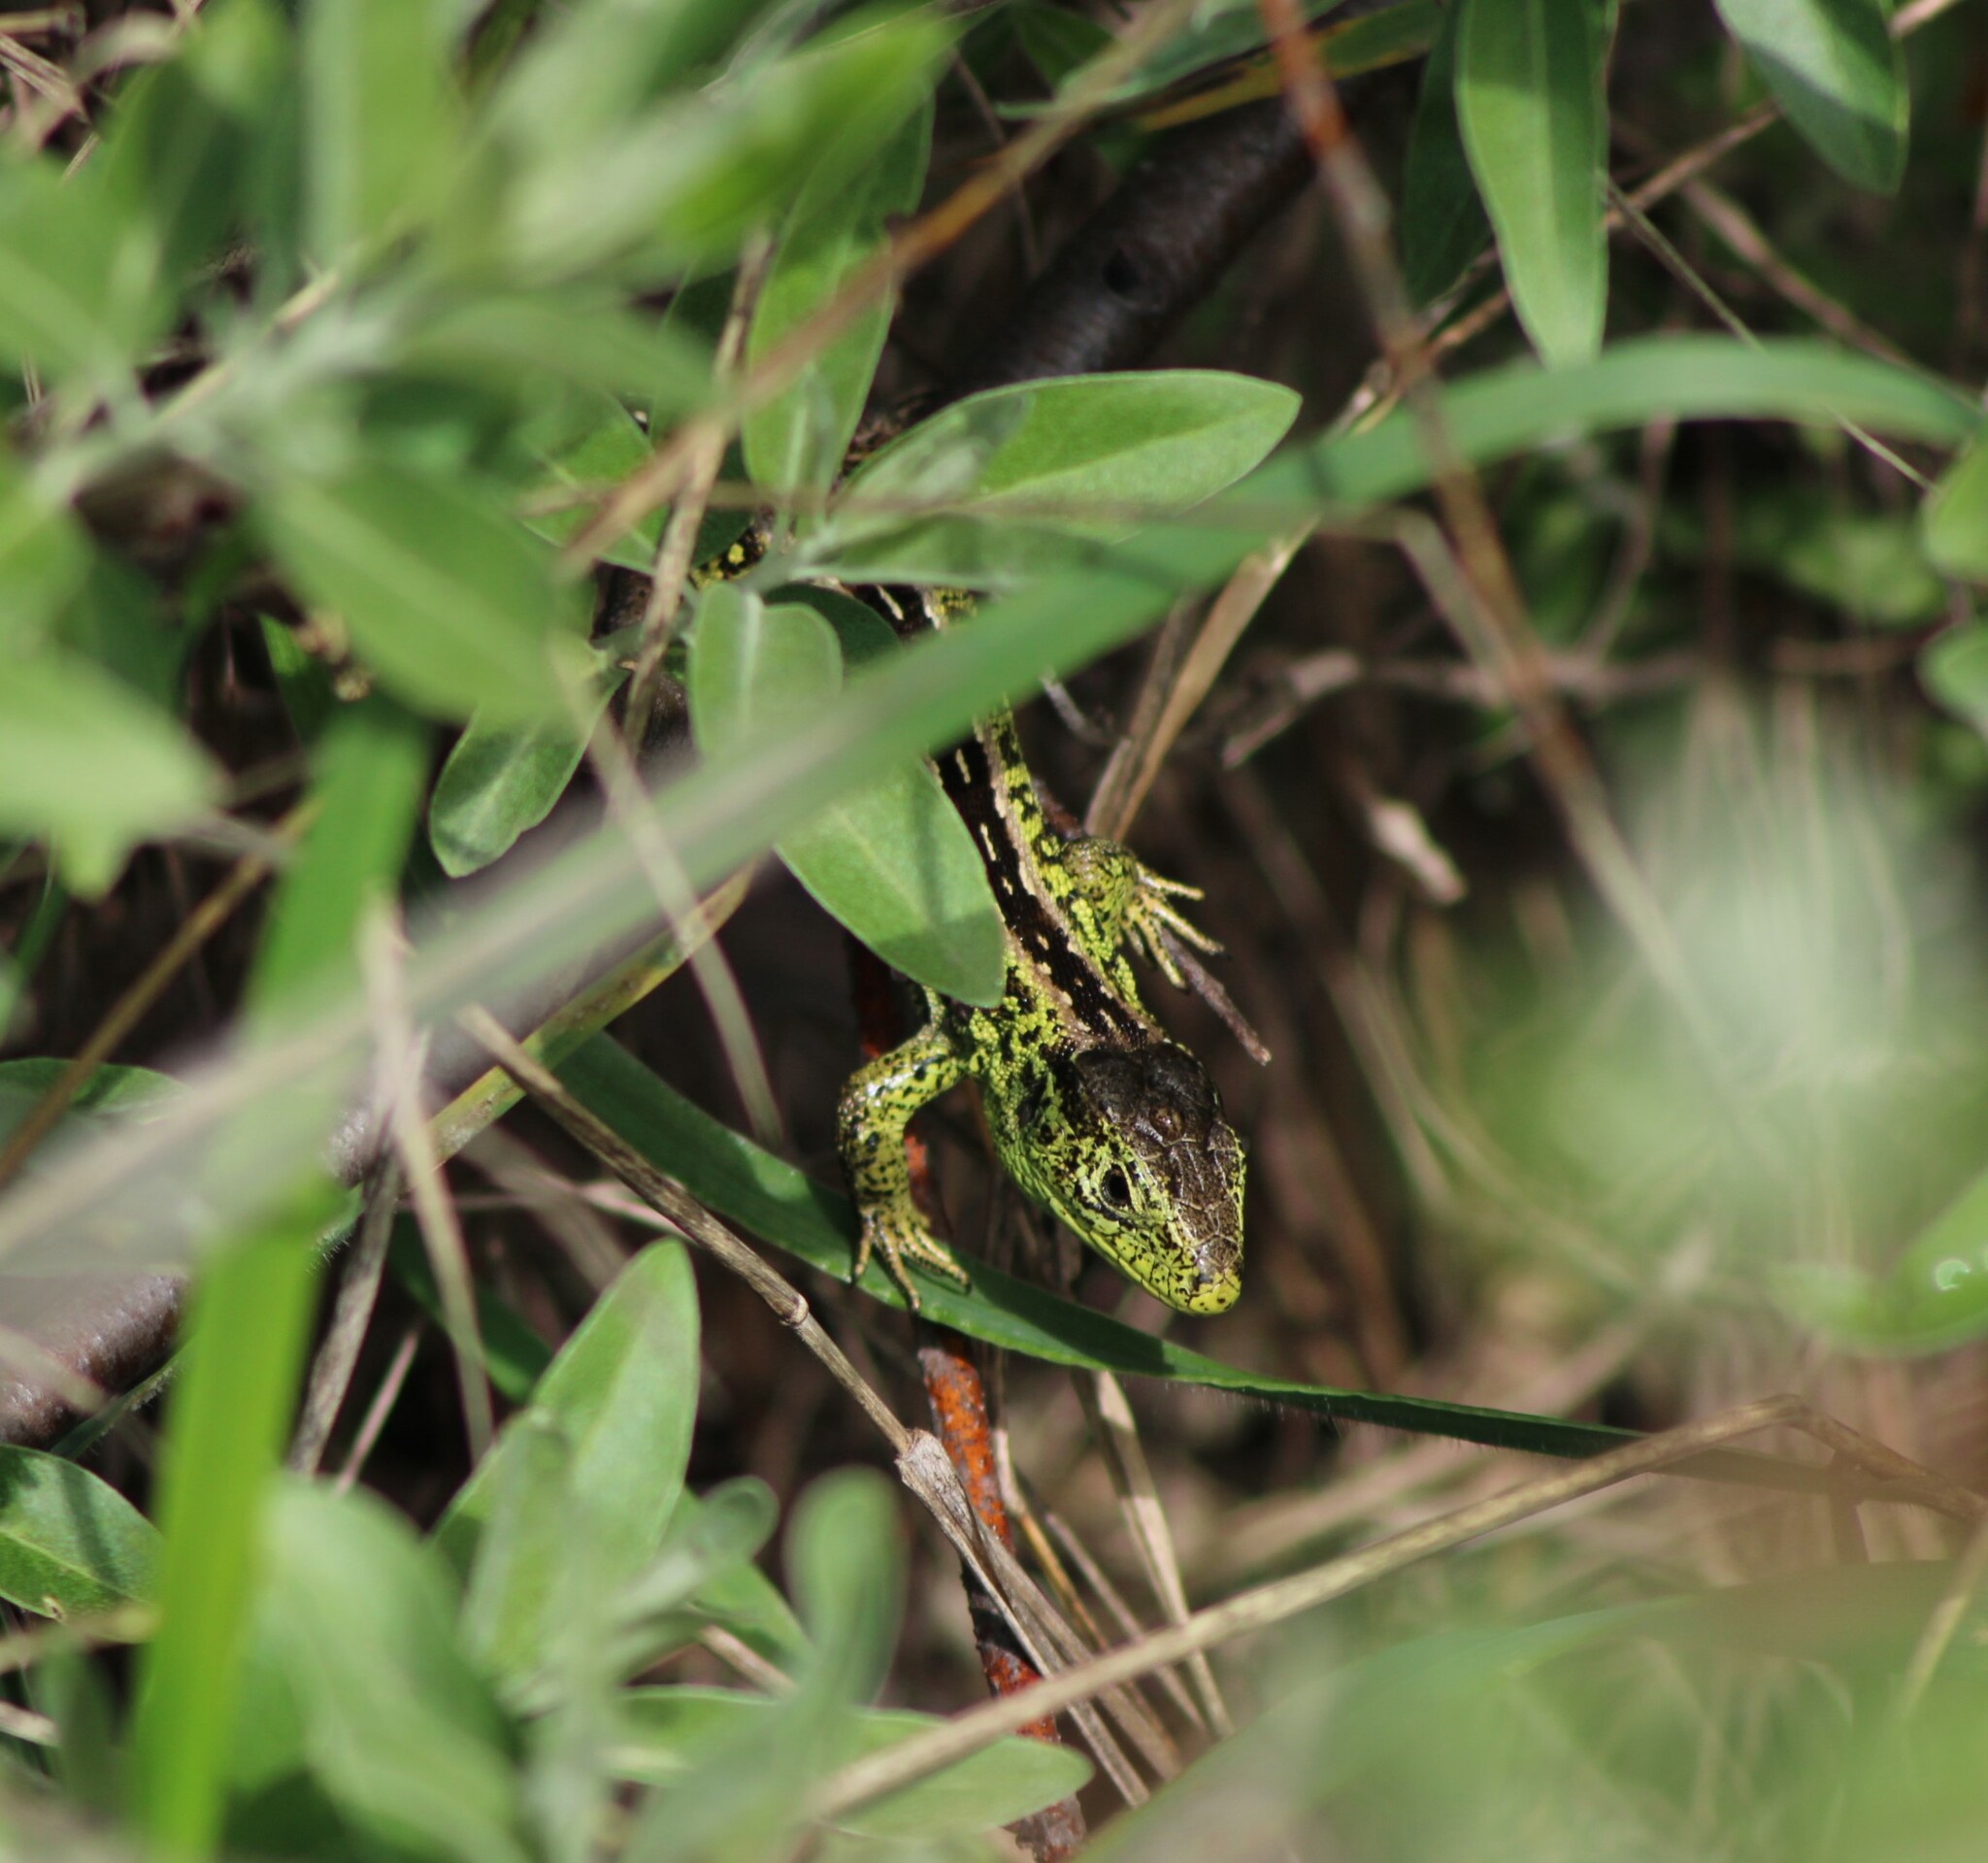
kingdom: Animalia
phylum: Chordata
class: Squamata
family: Lacertidae
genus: Lacerta
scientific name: Lacerta agilis
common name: Sand lizard
